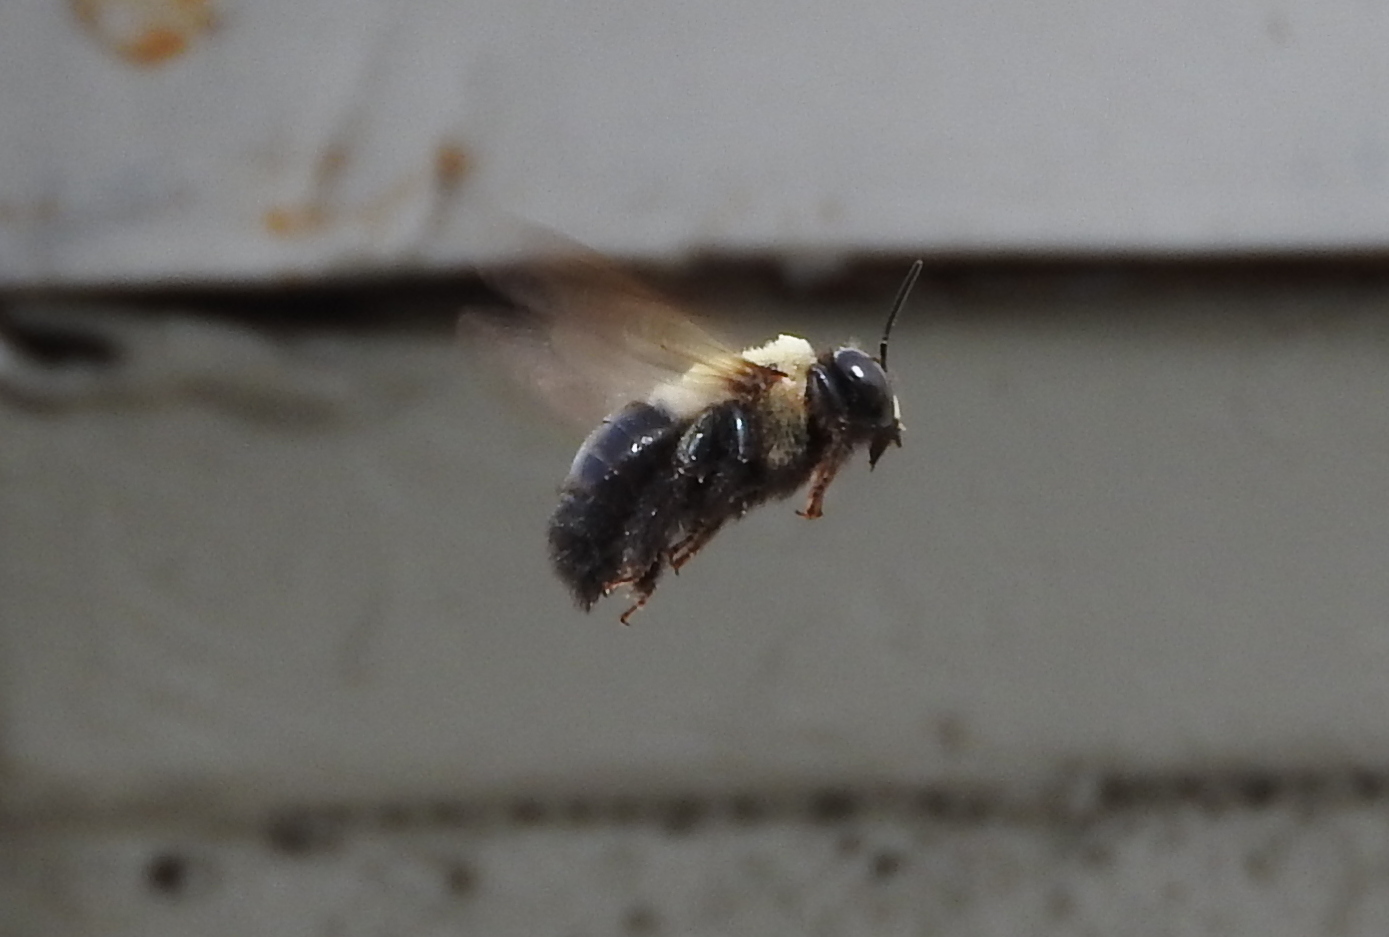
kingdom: Animalia
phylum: Arthropoda
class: Insecta
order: Hymenoptera
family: Apidae
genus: Xylocopa
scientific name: Xylocopa virginica
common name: Carpenter bee
